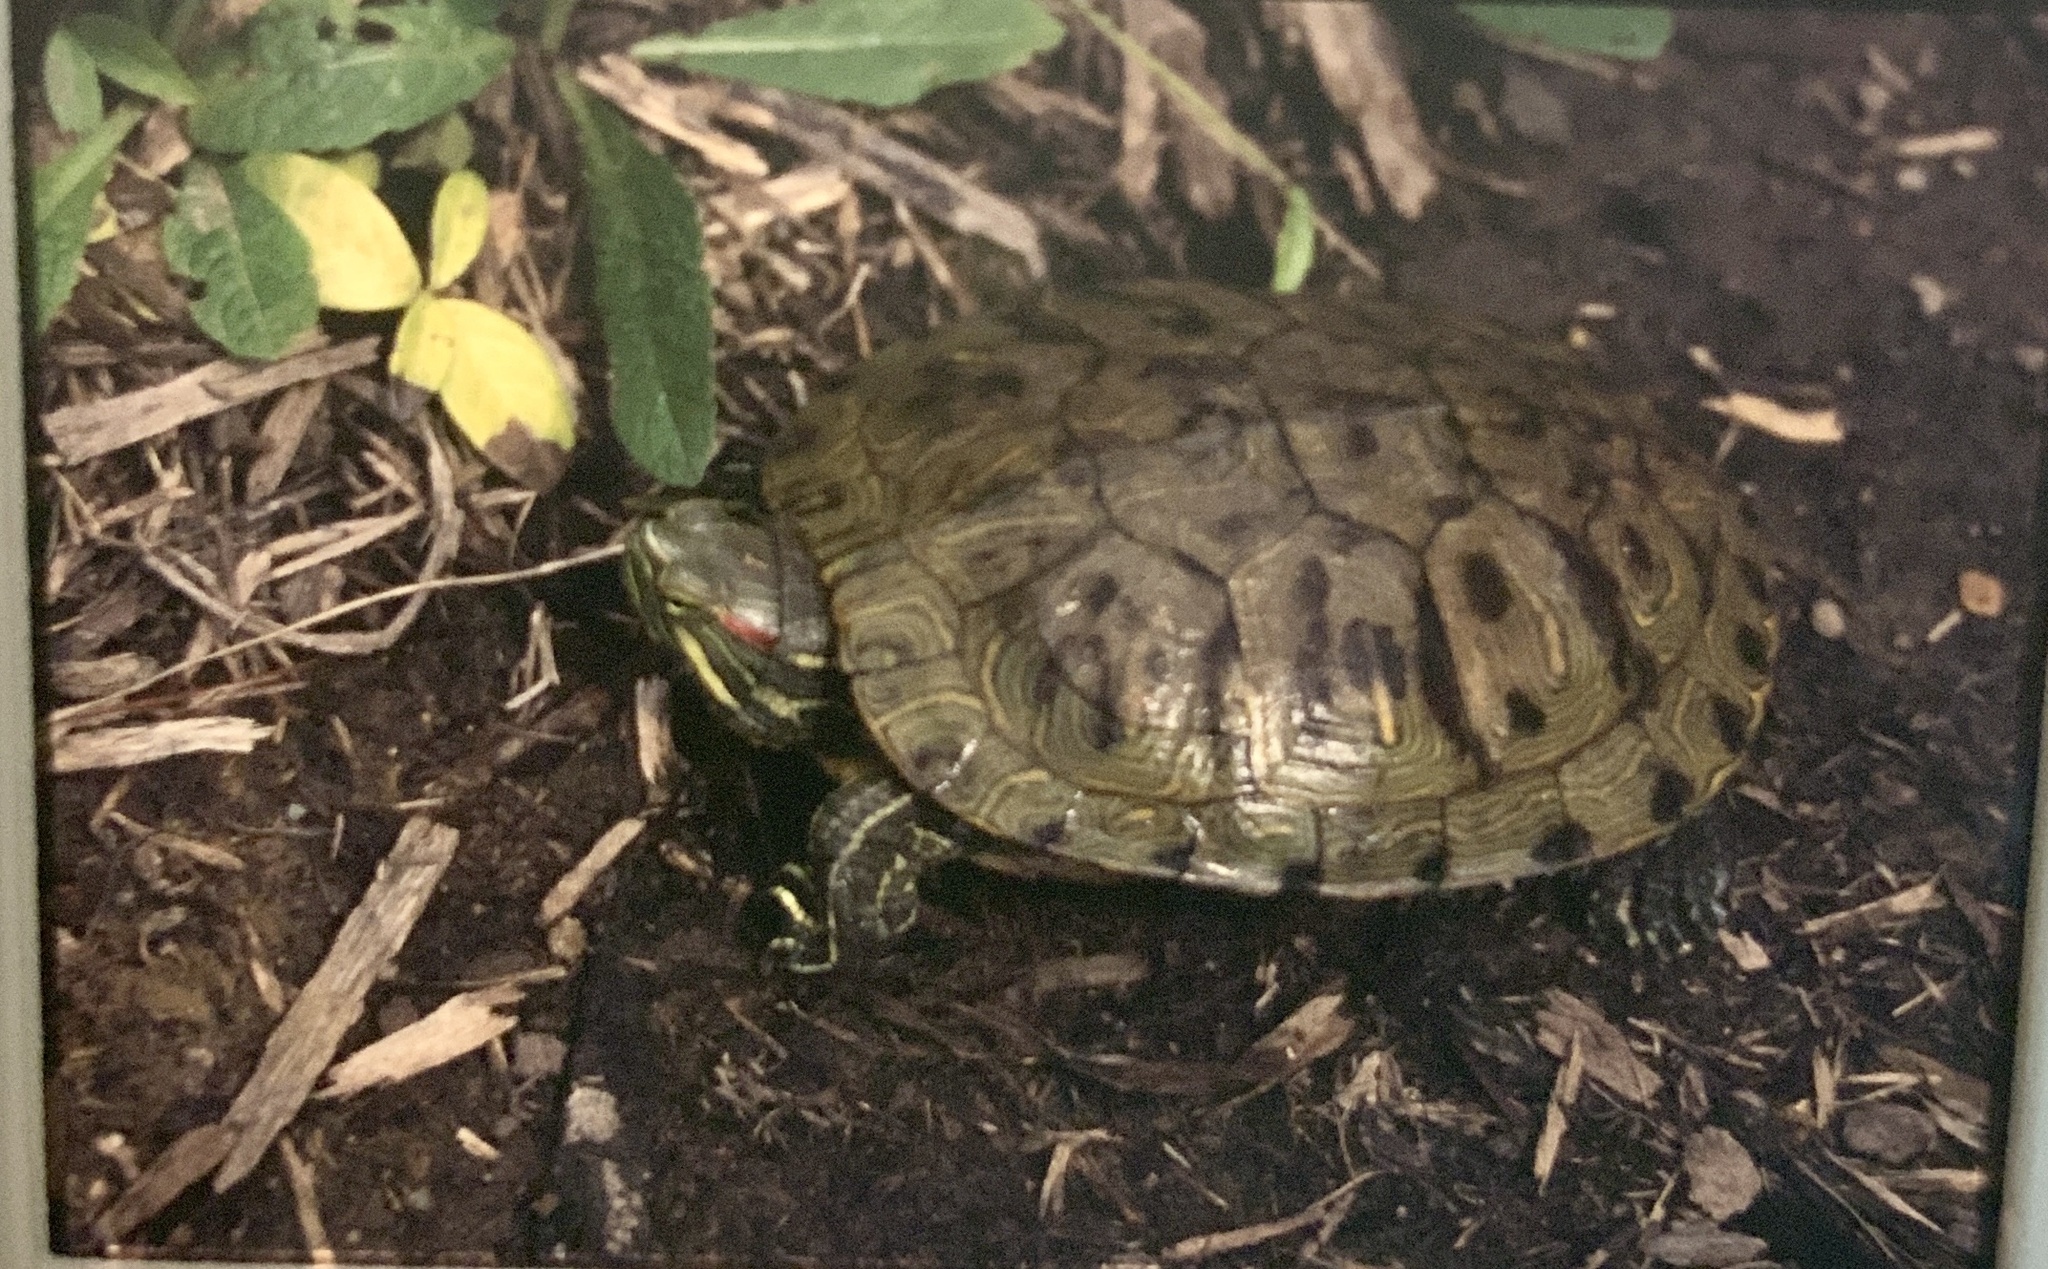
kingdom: Animalia
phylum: Chordata
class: Testudines
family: Emydidae
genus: Trachemys
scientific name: Trachemys scripta
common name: Slider
